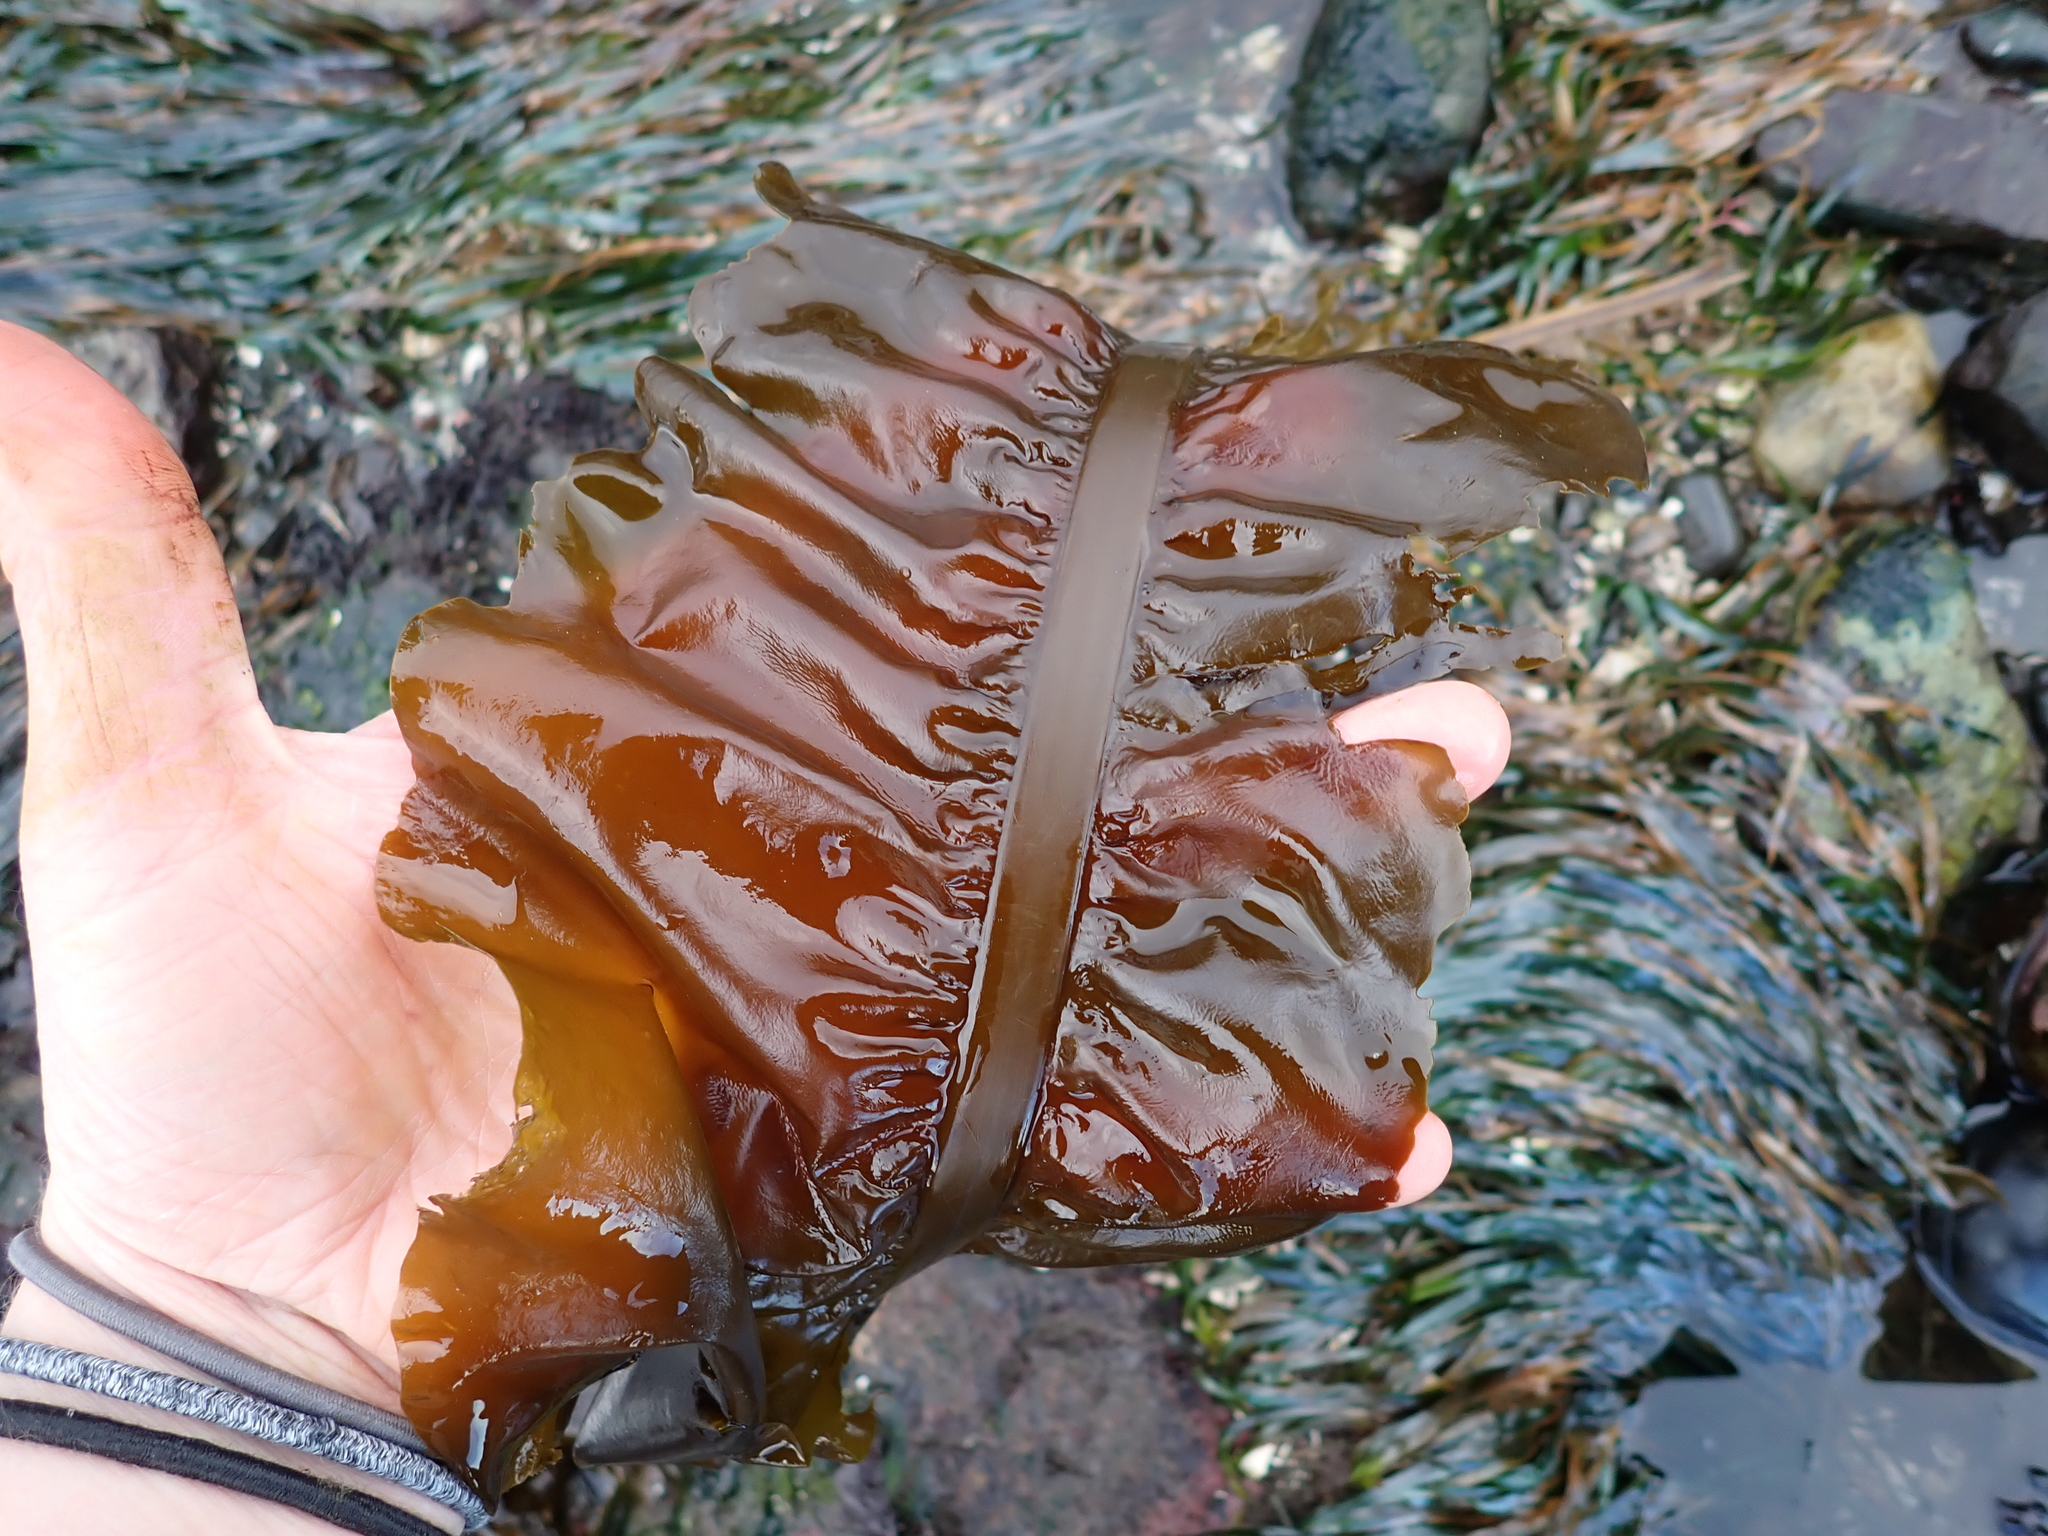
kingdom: Chromista
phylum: Ochrophyta
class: Phaeophyceae
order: Laminariales
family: Alariaceae
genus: Alaria
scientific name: Alaria marginata
